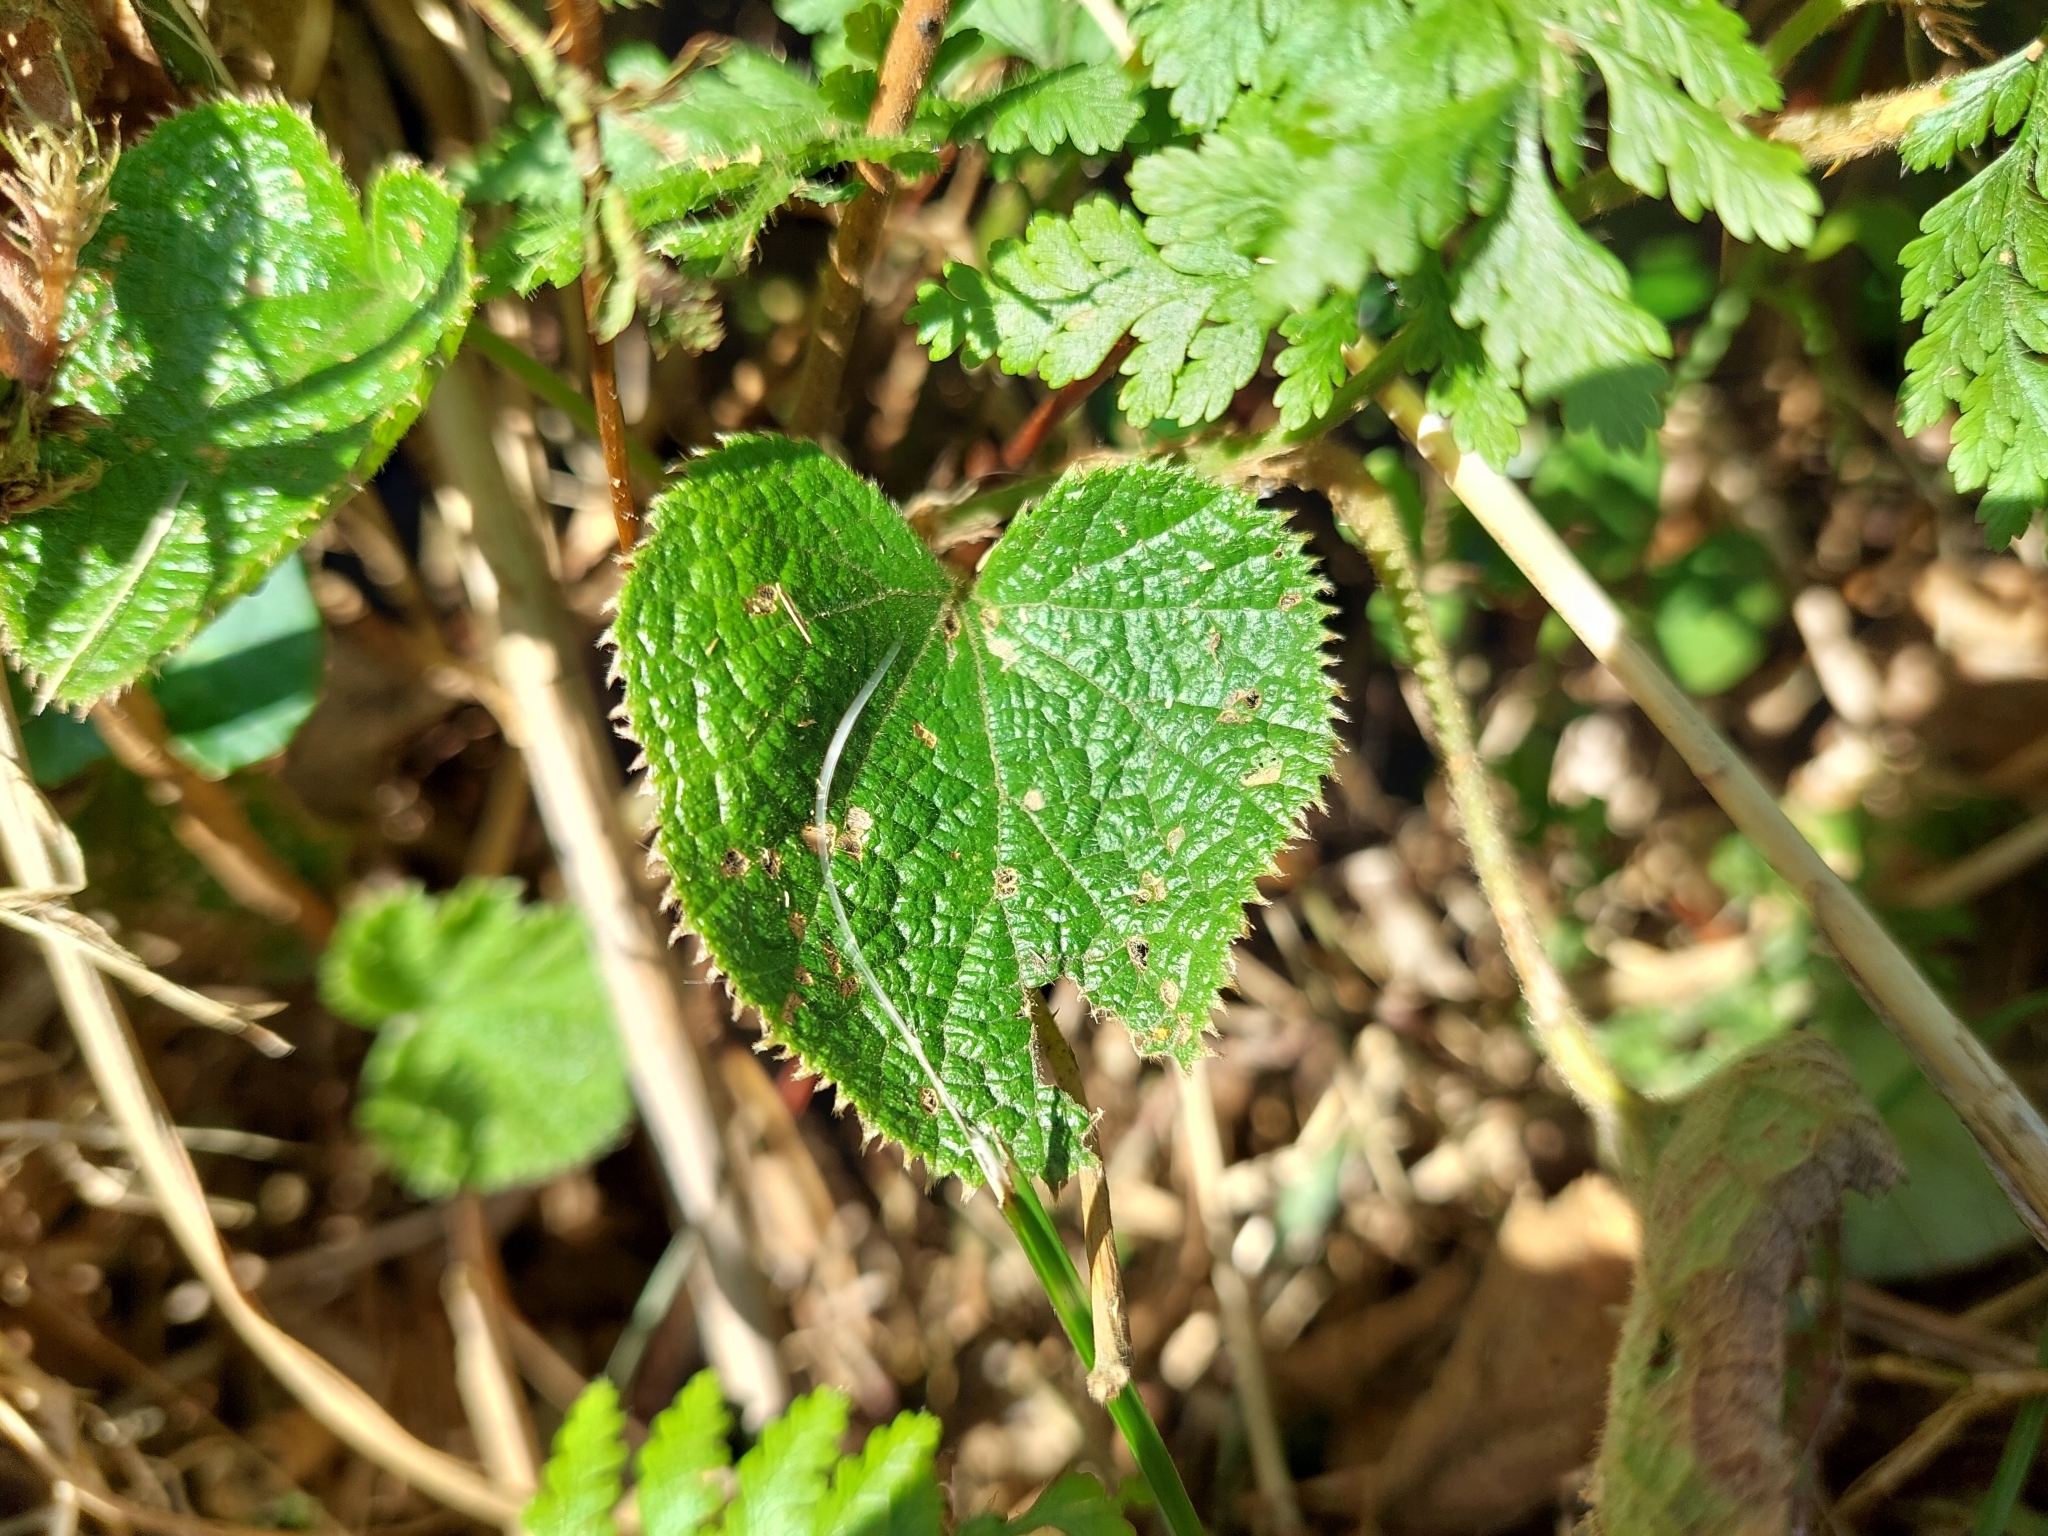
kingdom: Plantae
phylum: Tracheophyta
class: Magnoliopsida
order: Rosales
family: Rosaceae
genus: Rubus
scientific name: Rubus buergeri
